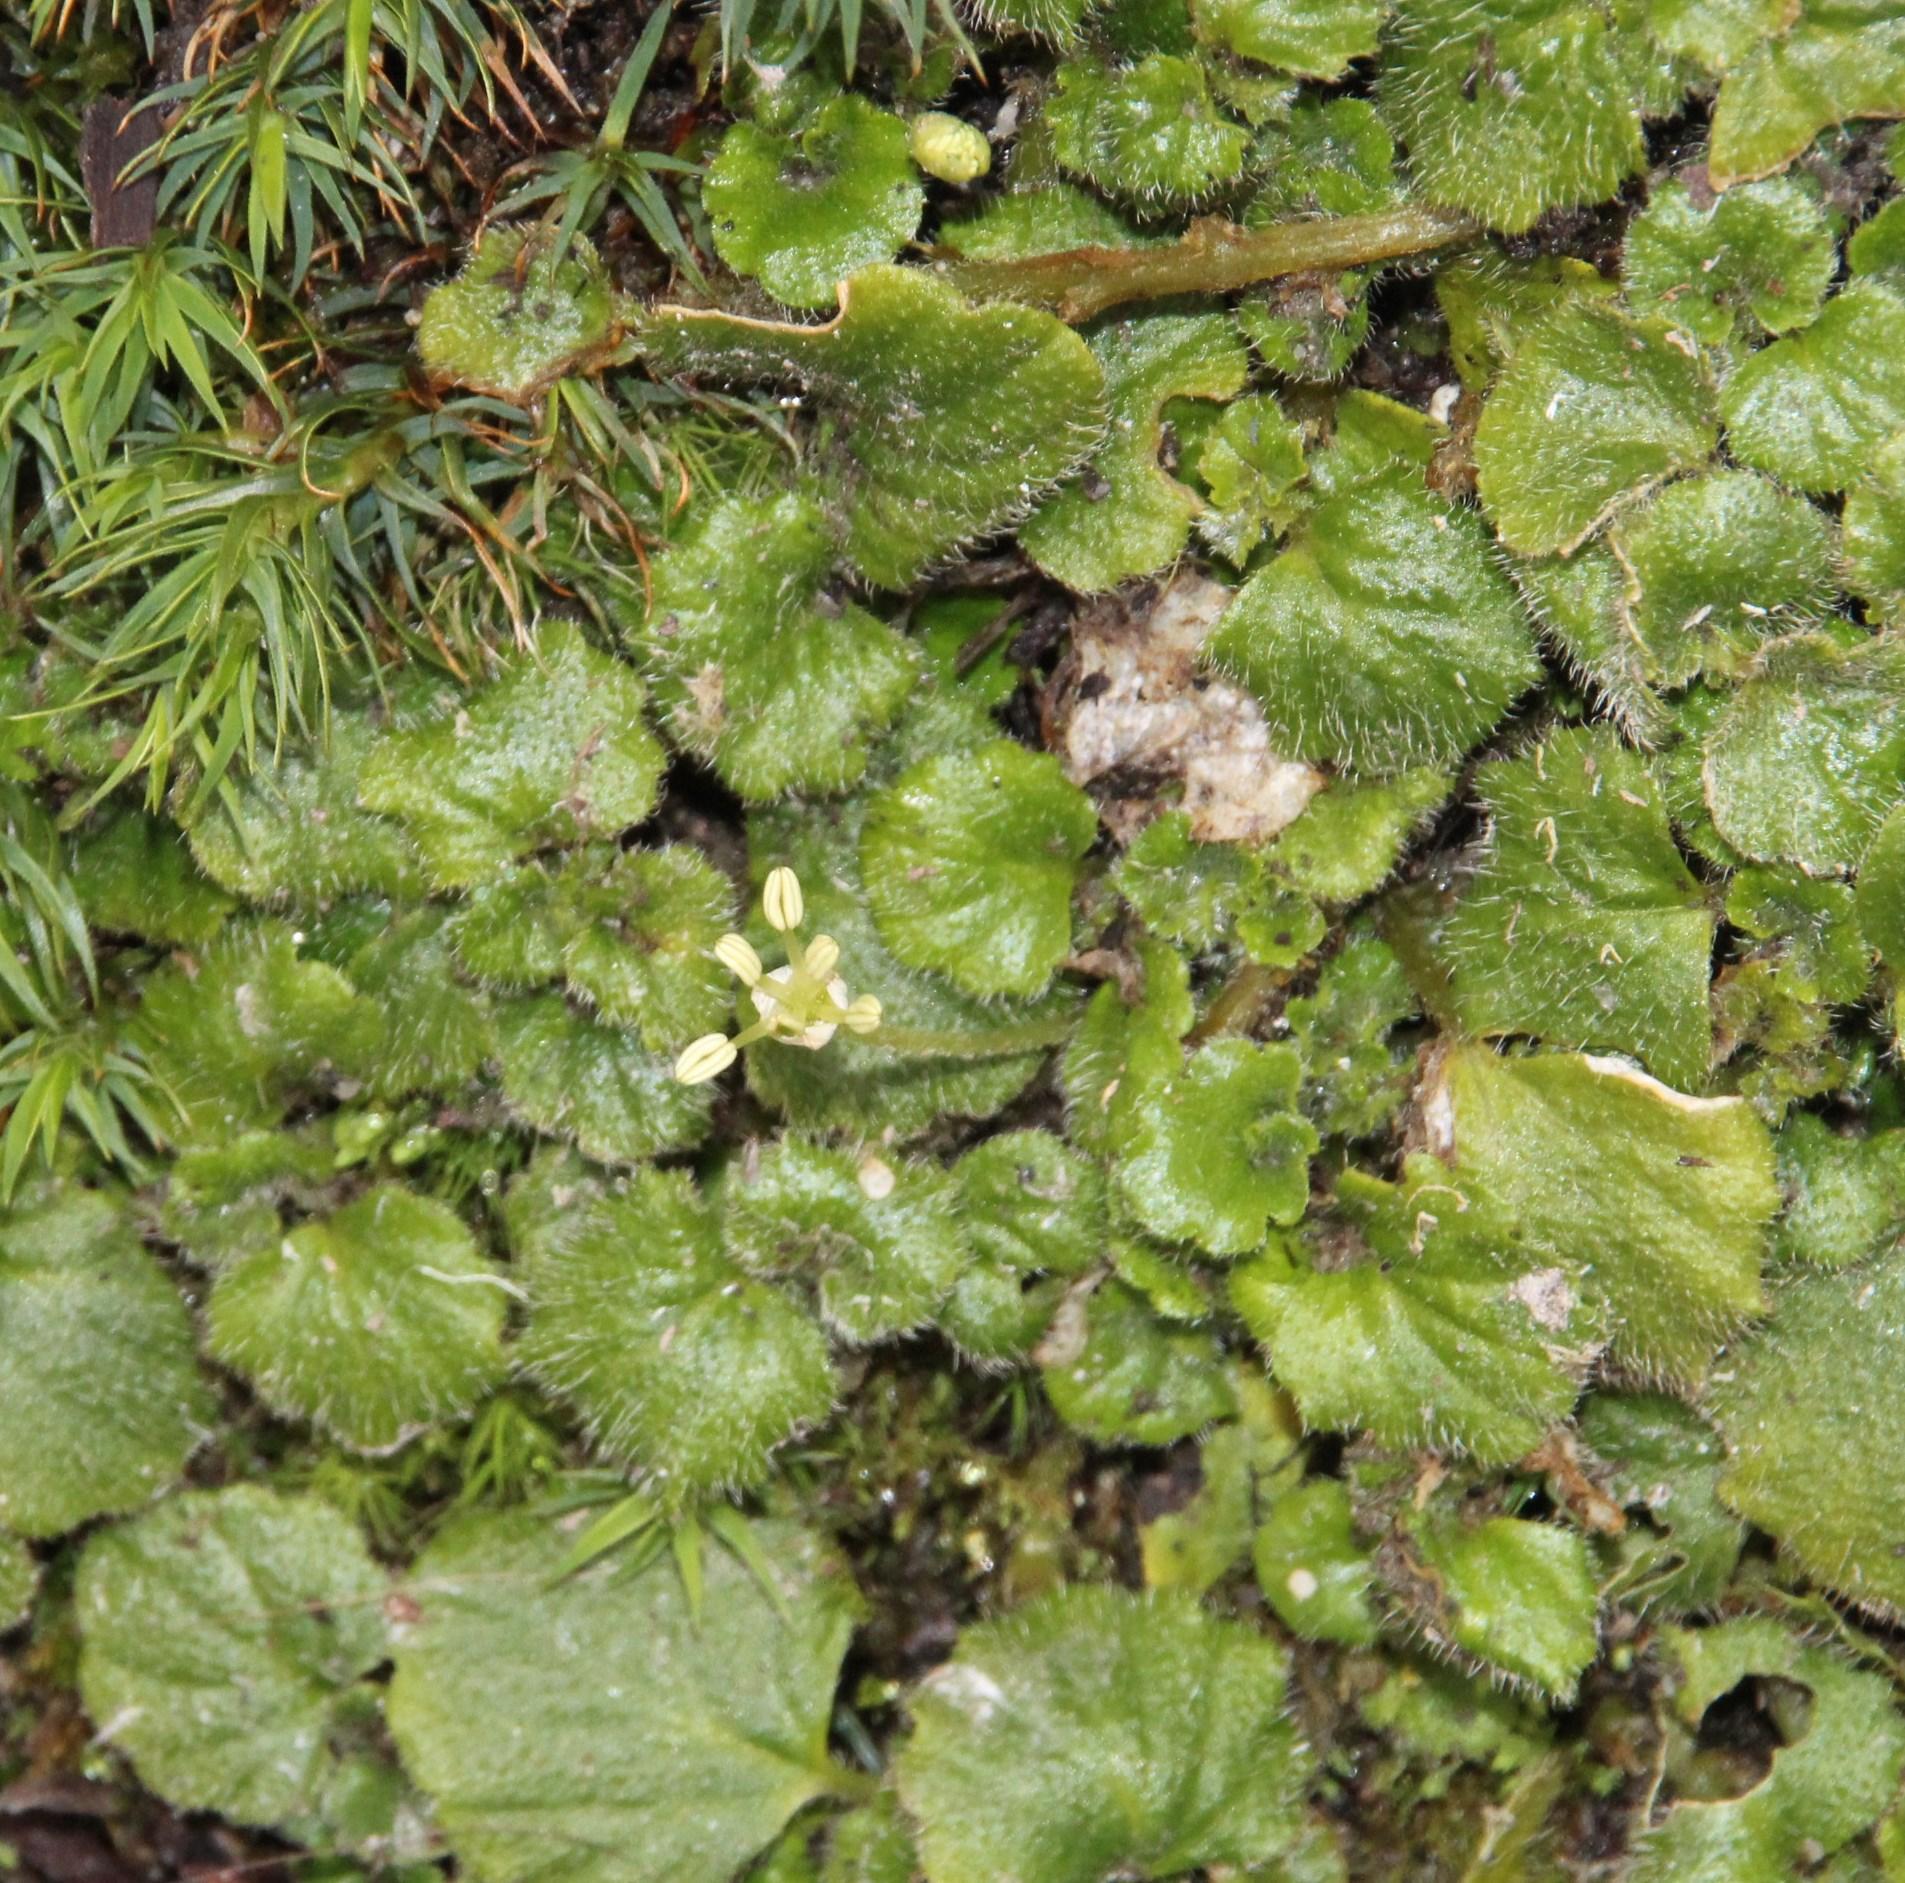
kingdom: Plantae
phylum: Tracheophyta
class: Magnoliopsida
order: Malpighiales
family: Euphorbiaceae
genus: Dysopsis
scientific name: Dysopsis glechomoides
